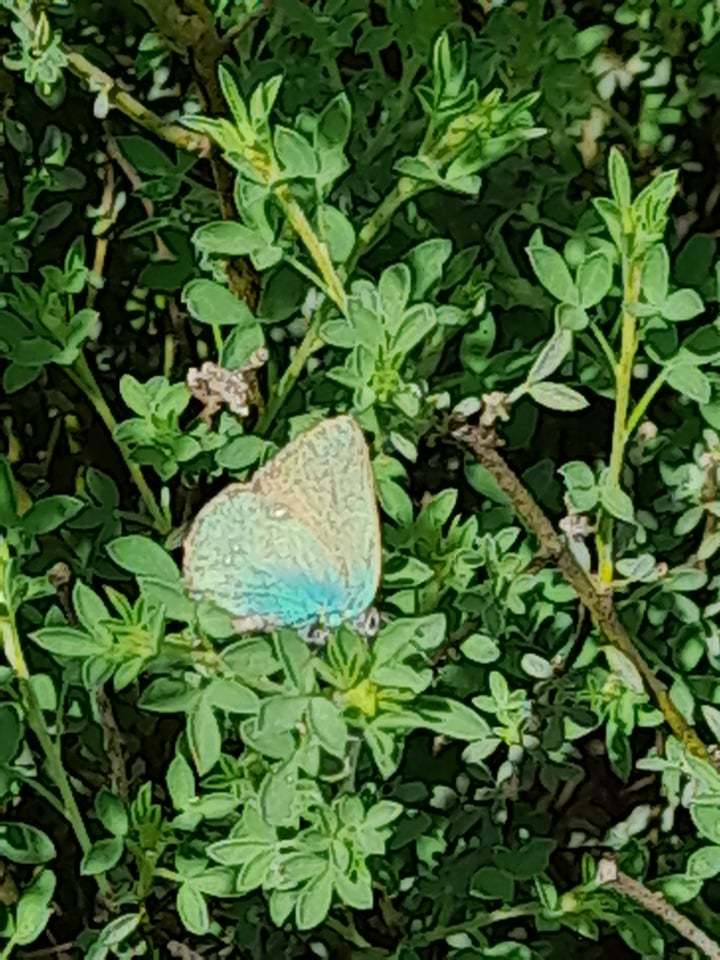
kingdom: Animalia
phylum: Arthropoda
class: Insecta
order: Lepidoptera
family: Lycaenidae
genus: Callophrys
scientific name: Callophrys rubi
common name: Green hairstreak
